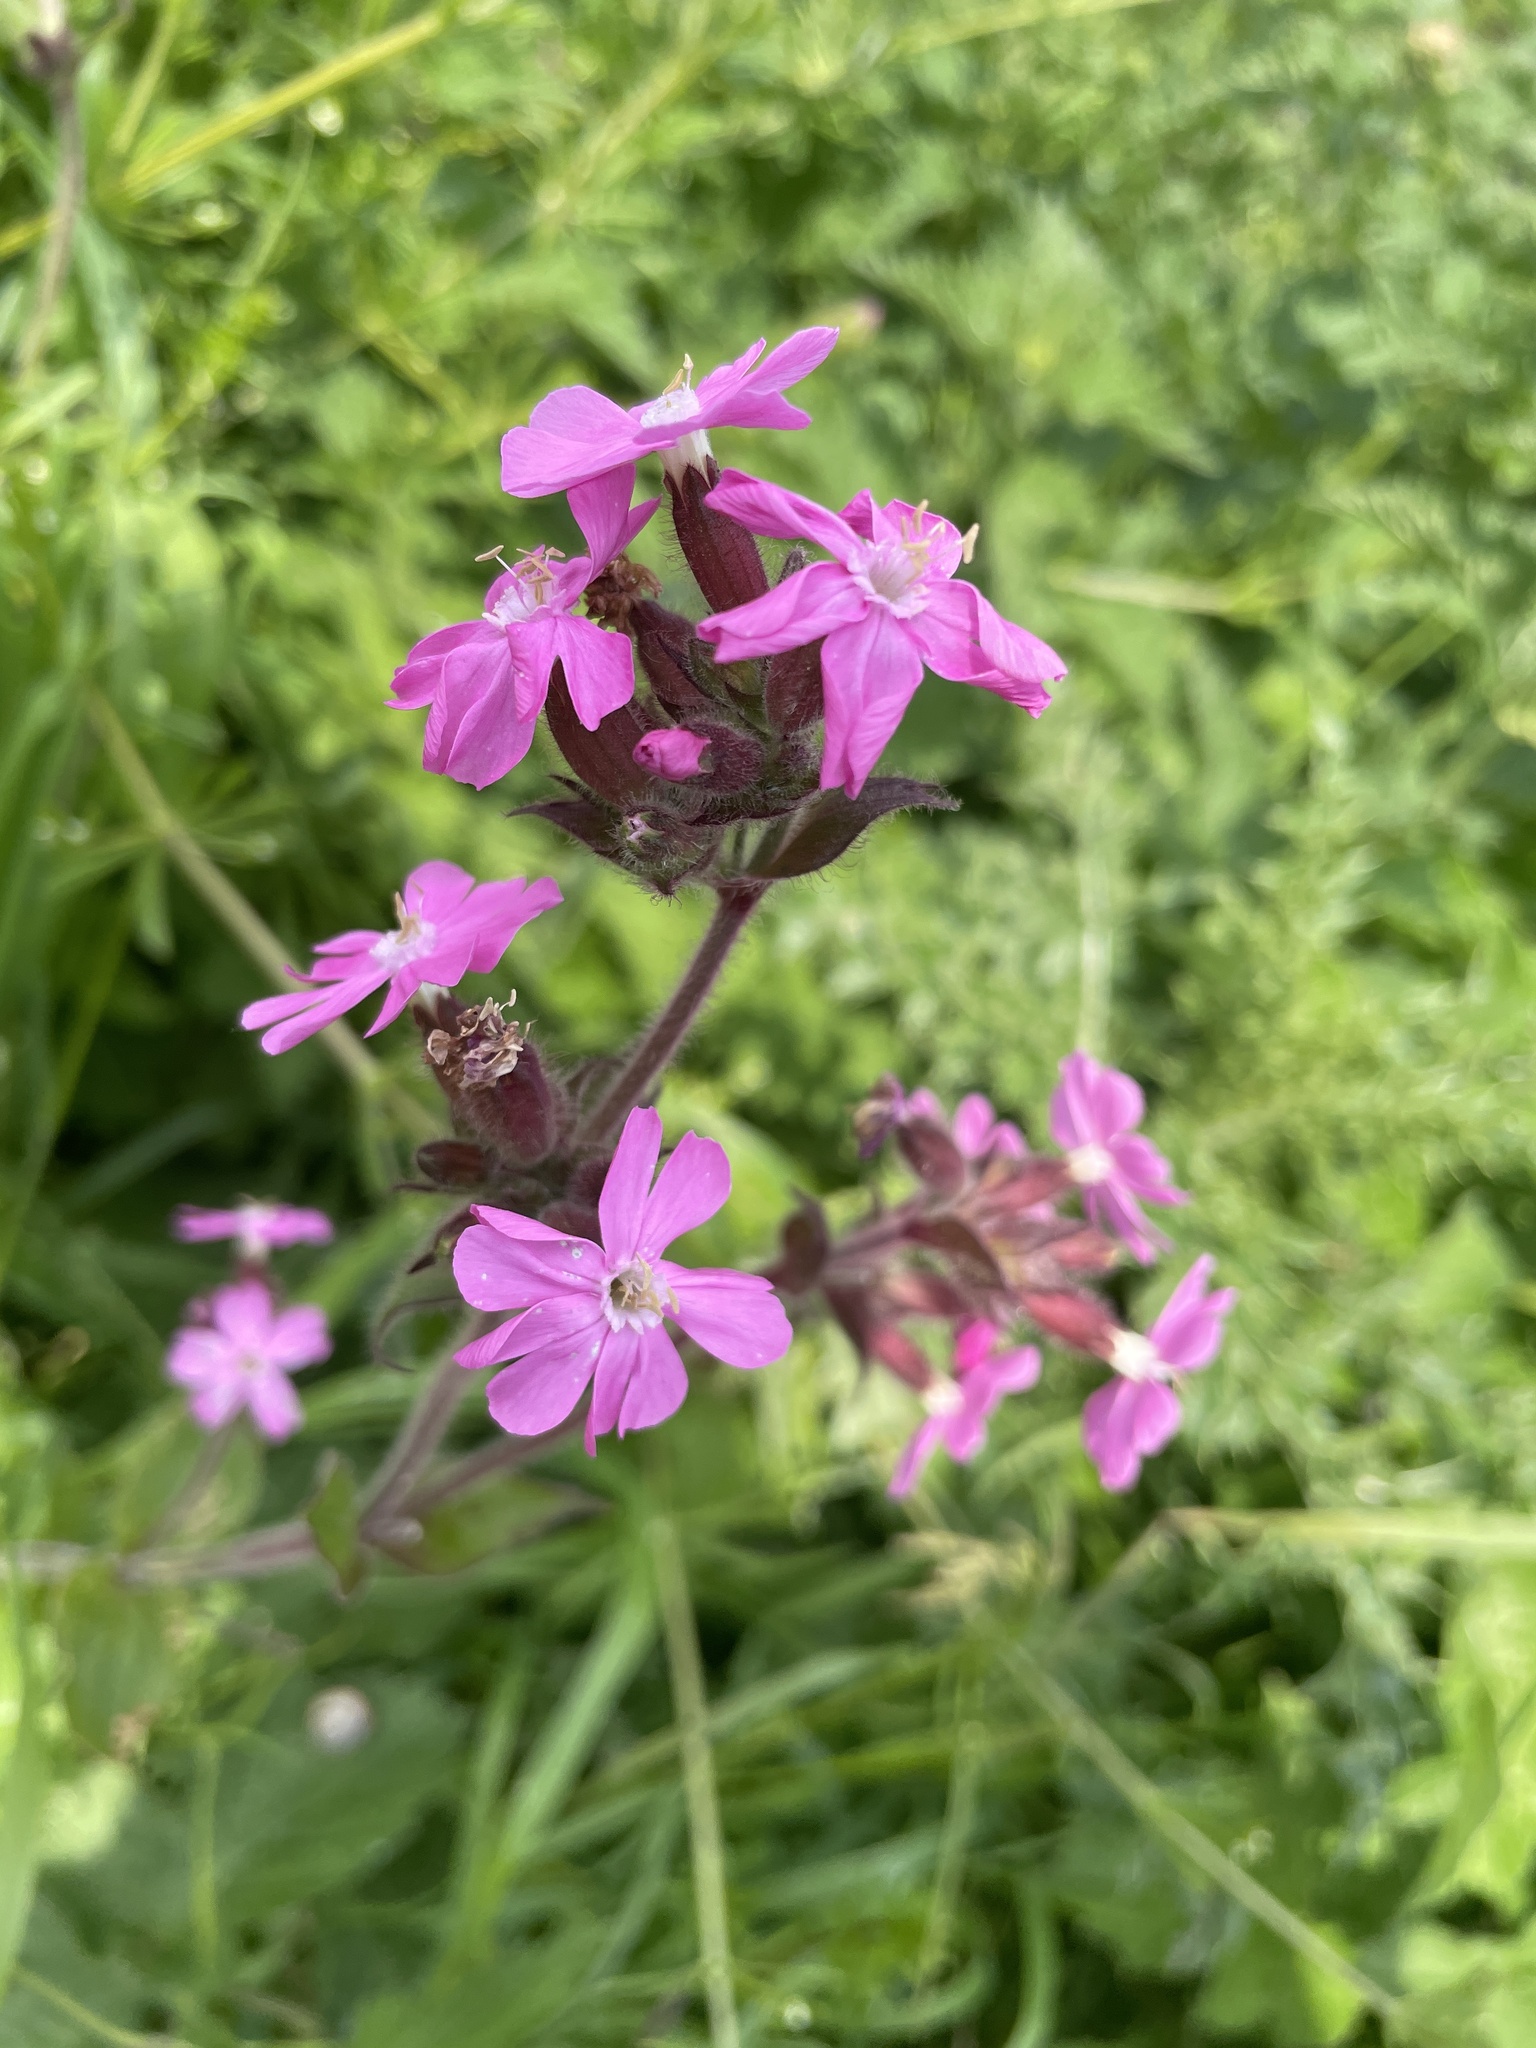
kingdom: Plantae
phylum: Tracheophyta
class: Magnoliopsida
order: Caryophyllales
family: Caryophyllaceae
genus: Silene
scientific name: Silene dioica
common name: Red campion
